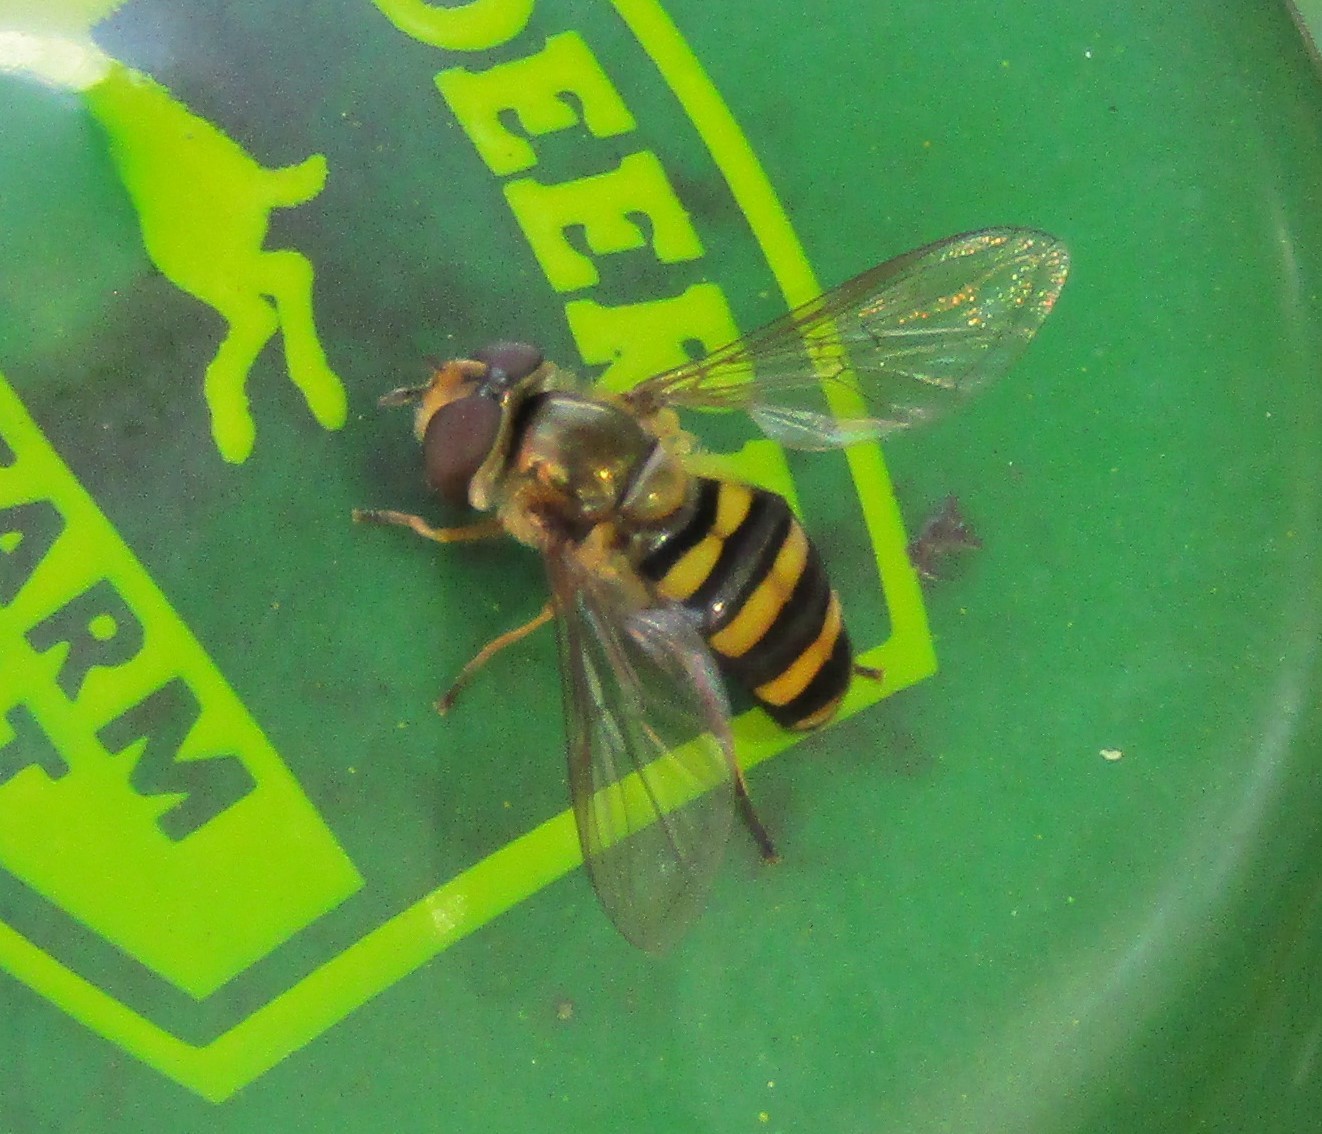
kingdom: Animalia
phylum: Arthropoda
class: Insecta
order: Diptera
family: Syrphidae
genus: Eupeodes
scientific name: Eupeodes
